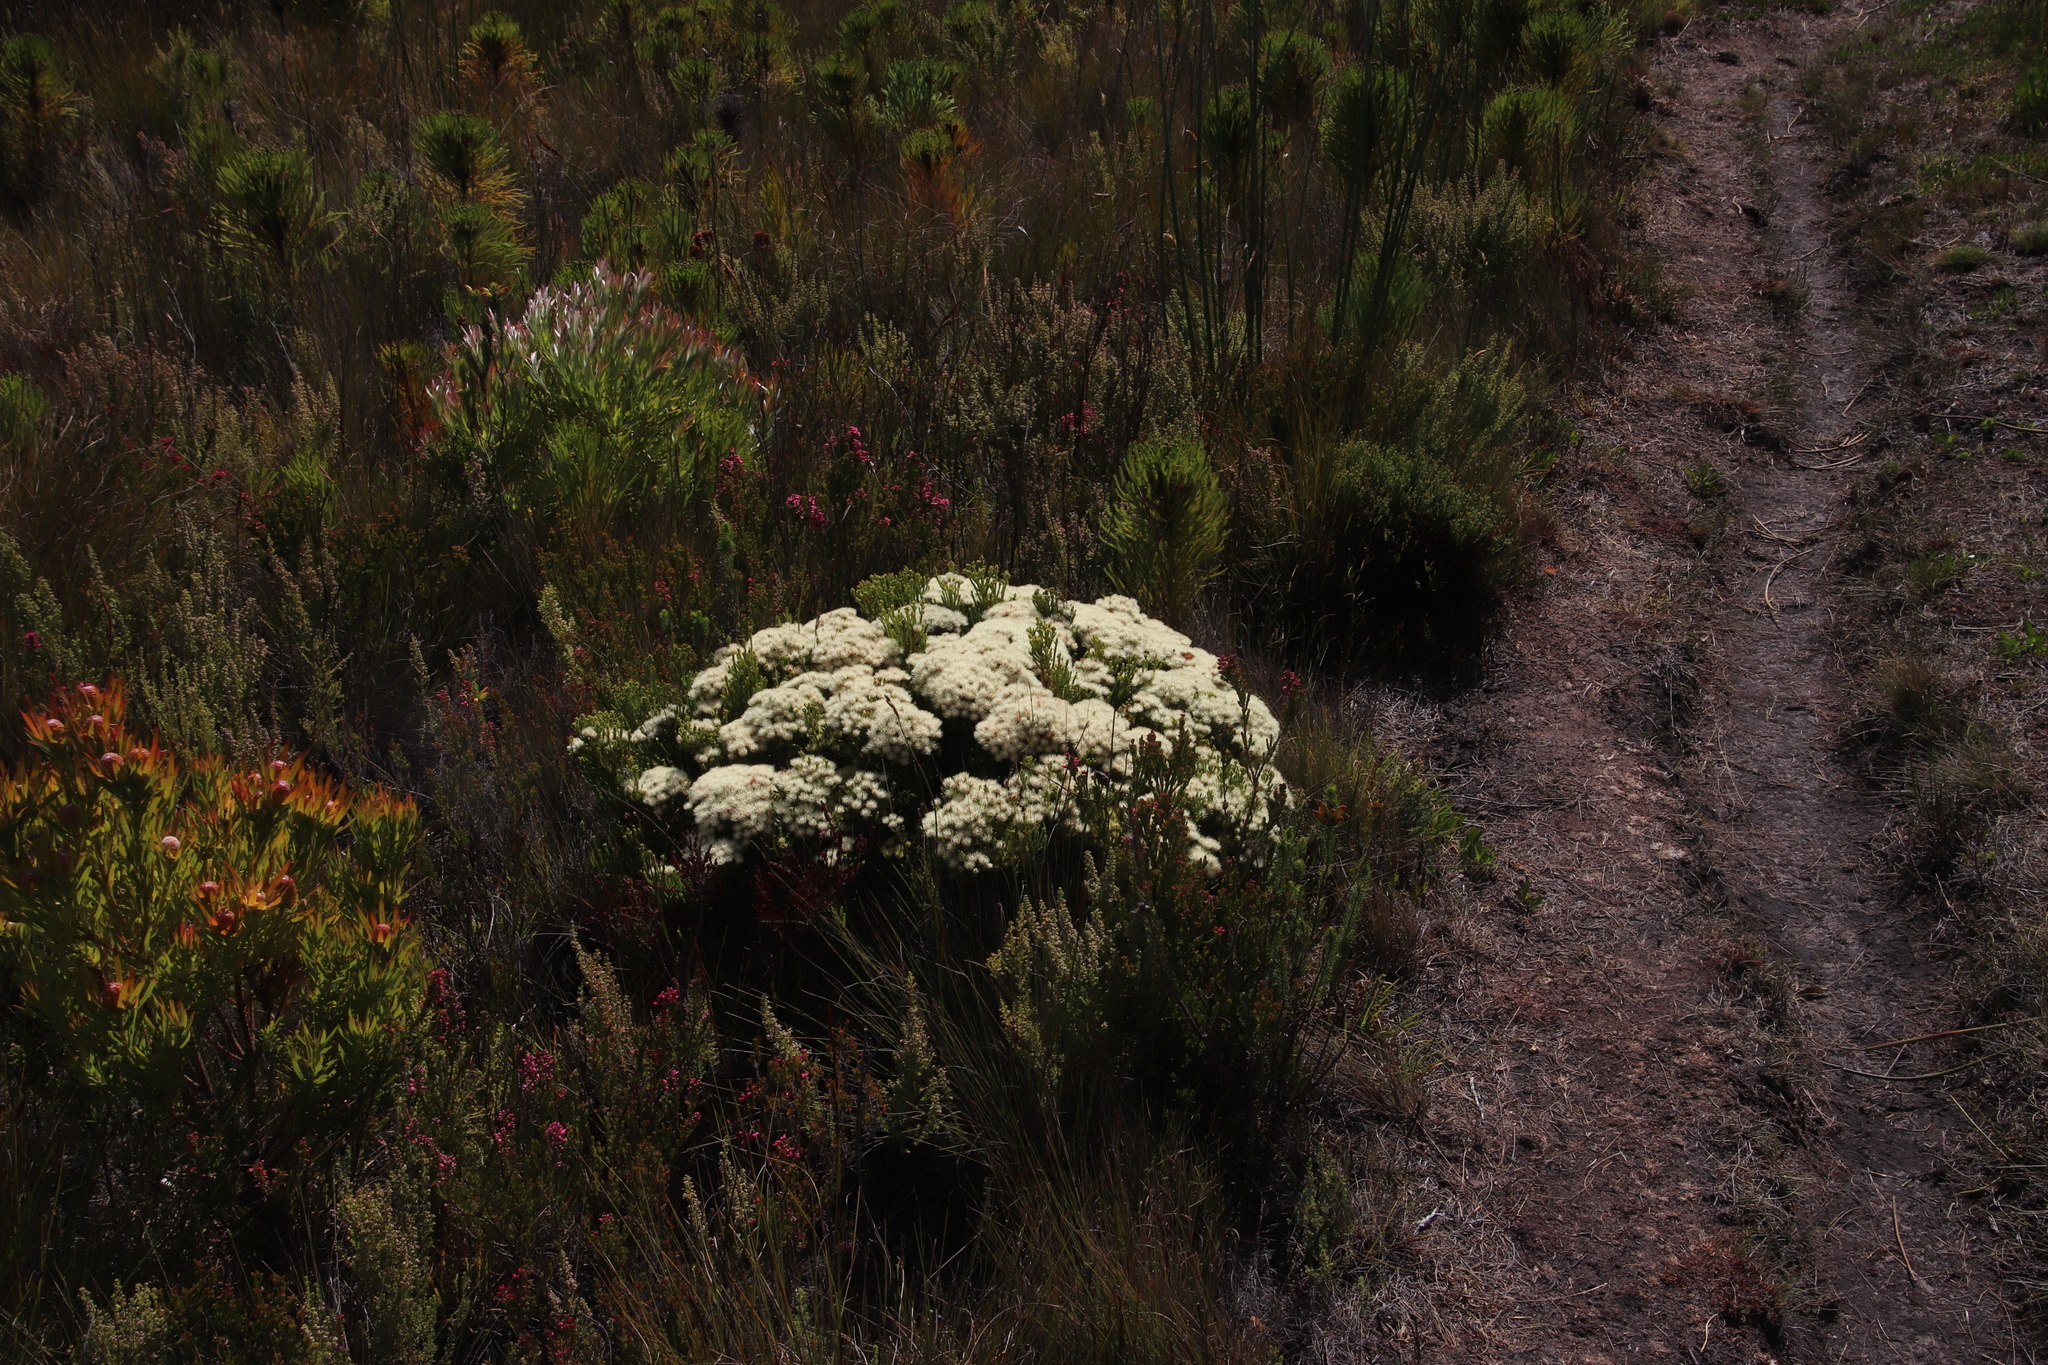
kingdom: Plantae
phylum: Tracheophyta
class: Magnoliopsida
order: Bruniales
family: Bruniaceae
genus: Brunia
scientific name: Brunia paleacea
